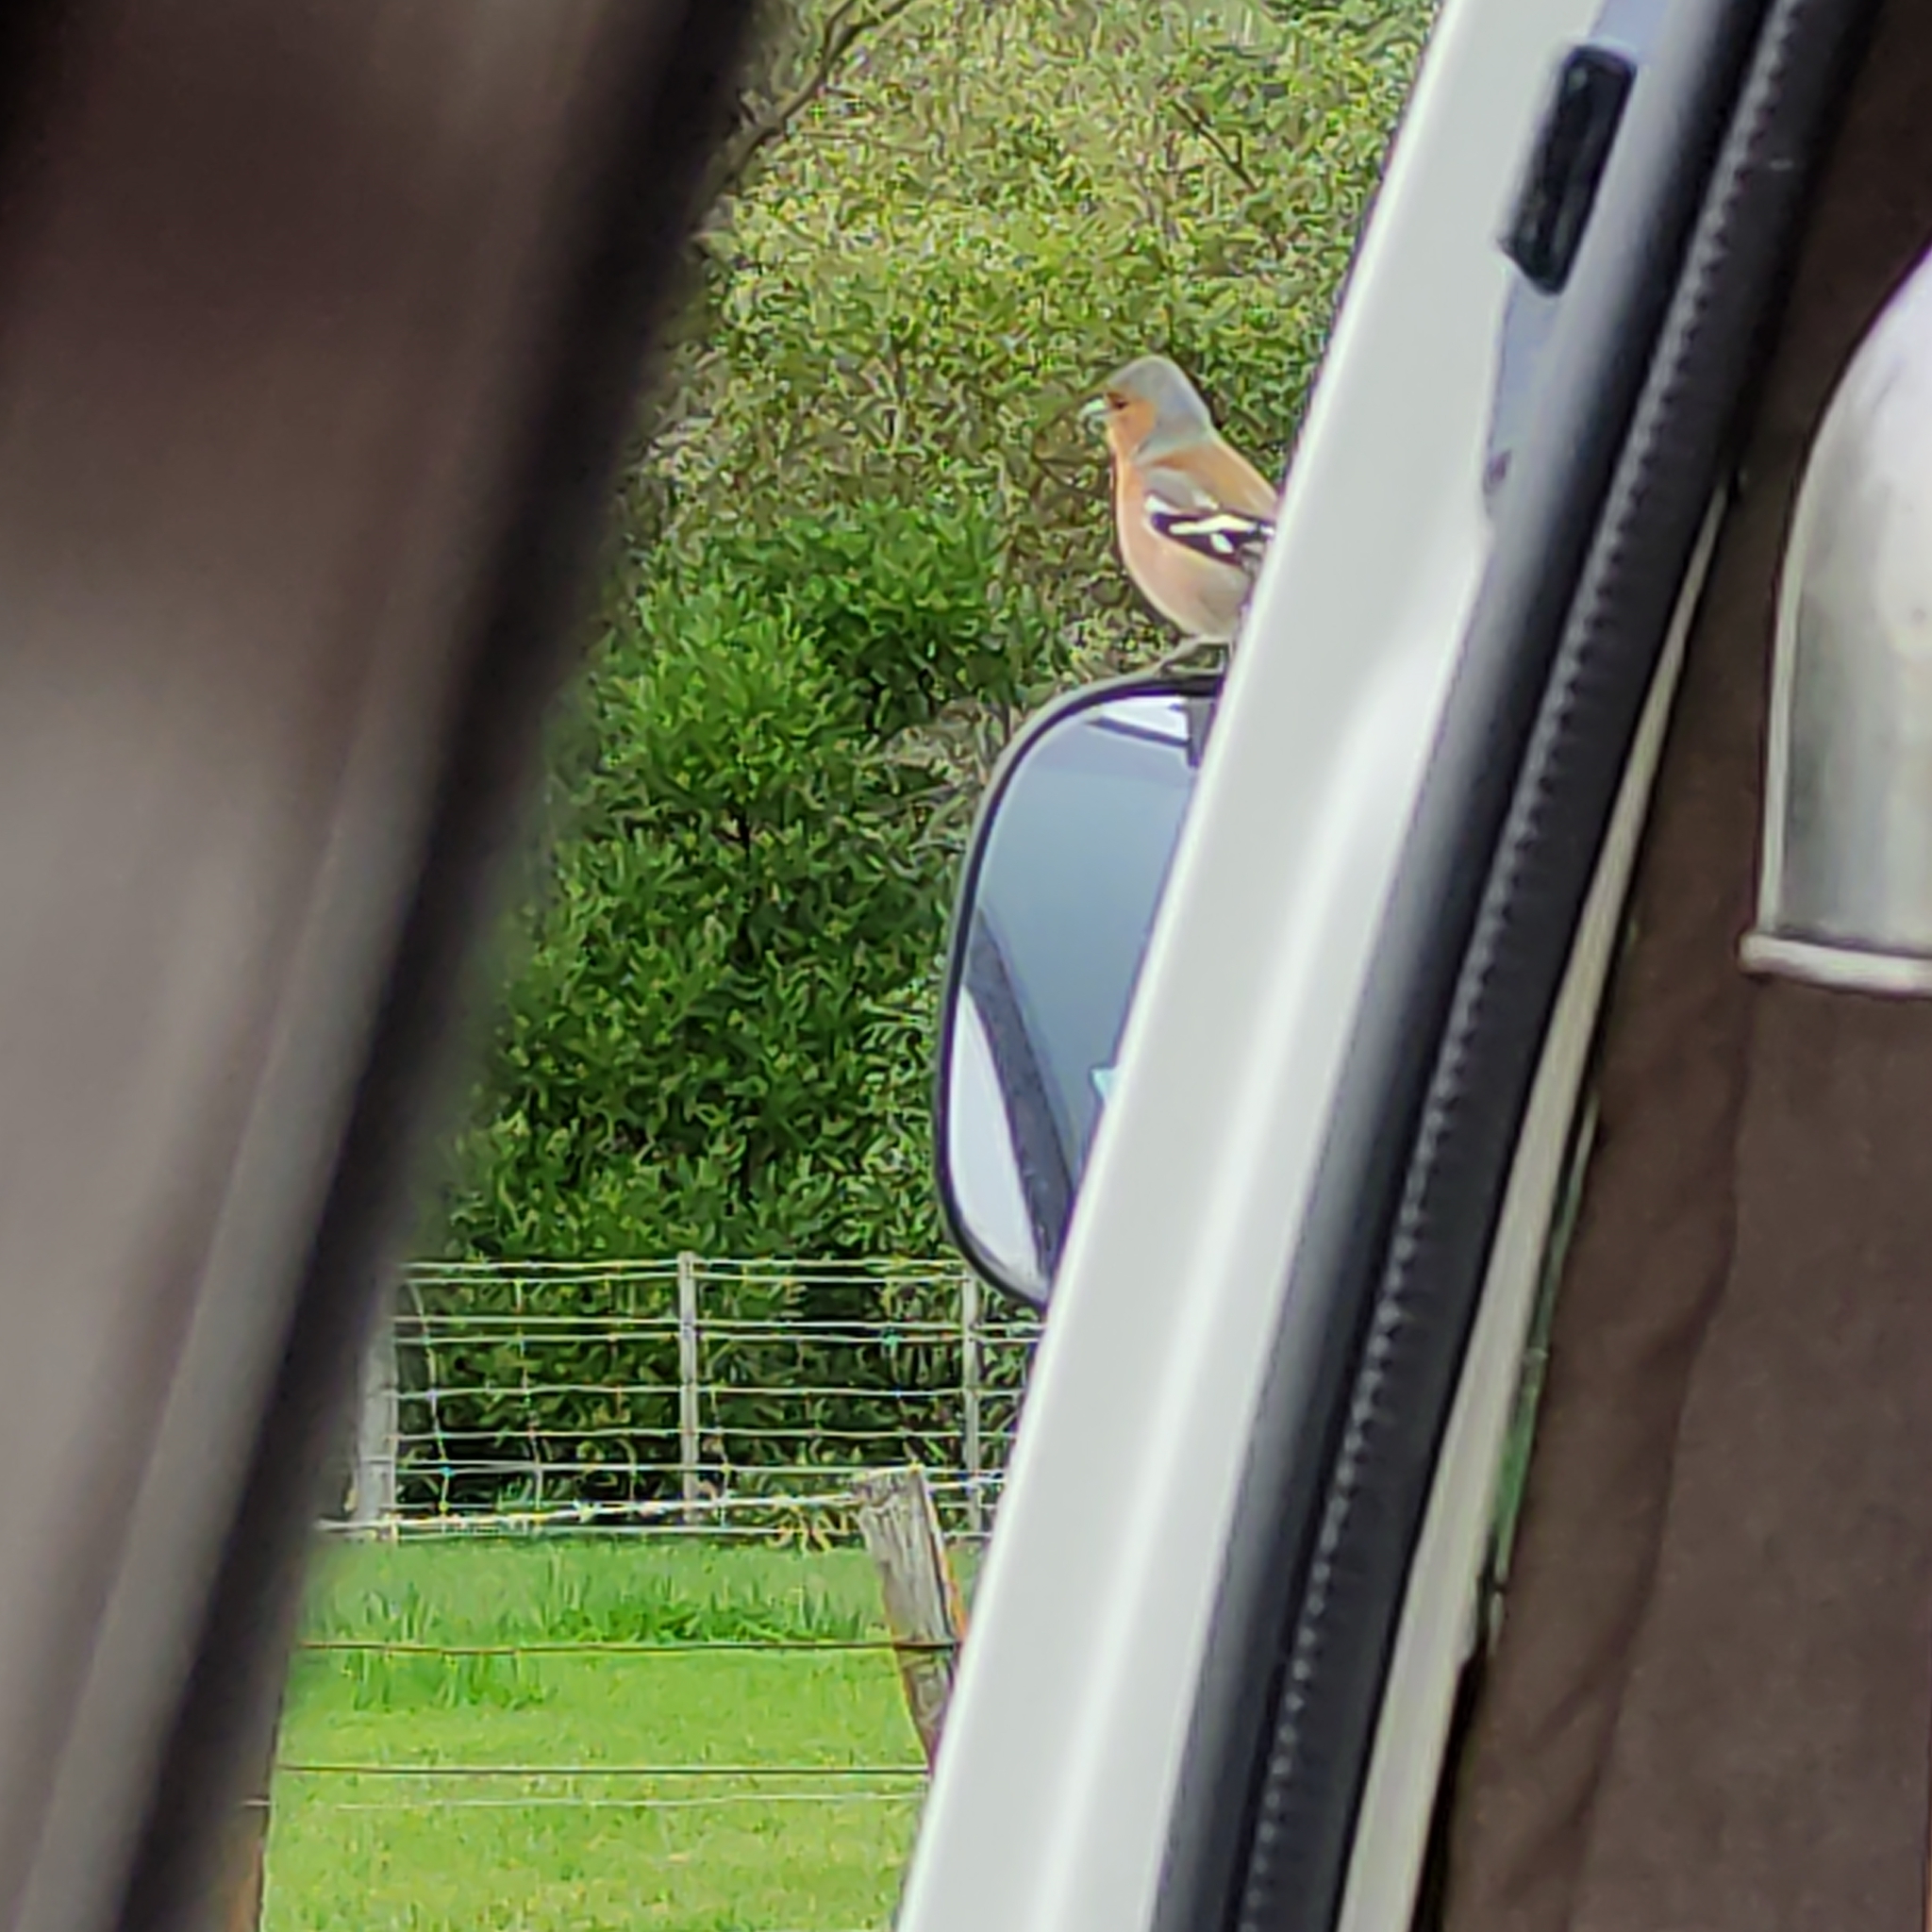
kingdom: Animalia
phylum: Chordata
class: Aves
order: Passeriformes
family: Fringillidae
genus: Fringilla
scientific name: Fringilla coelebs
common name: Common chaffinch
